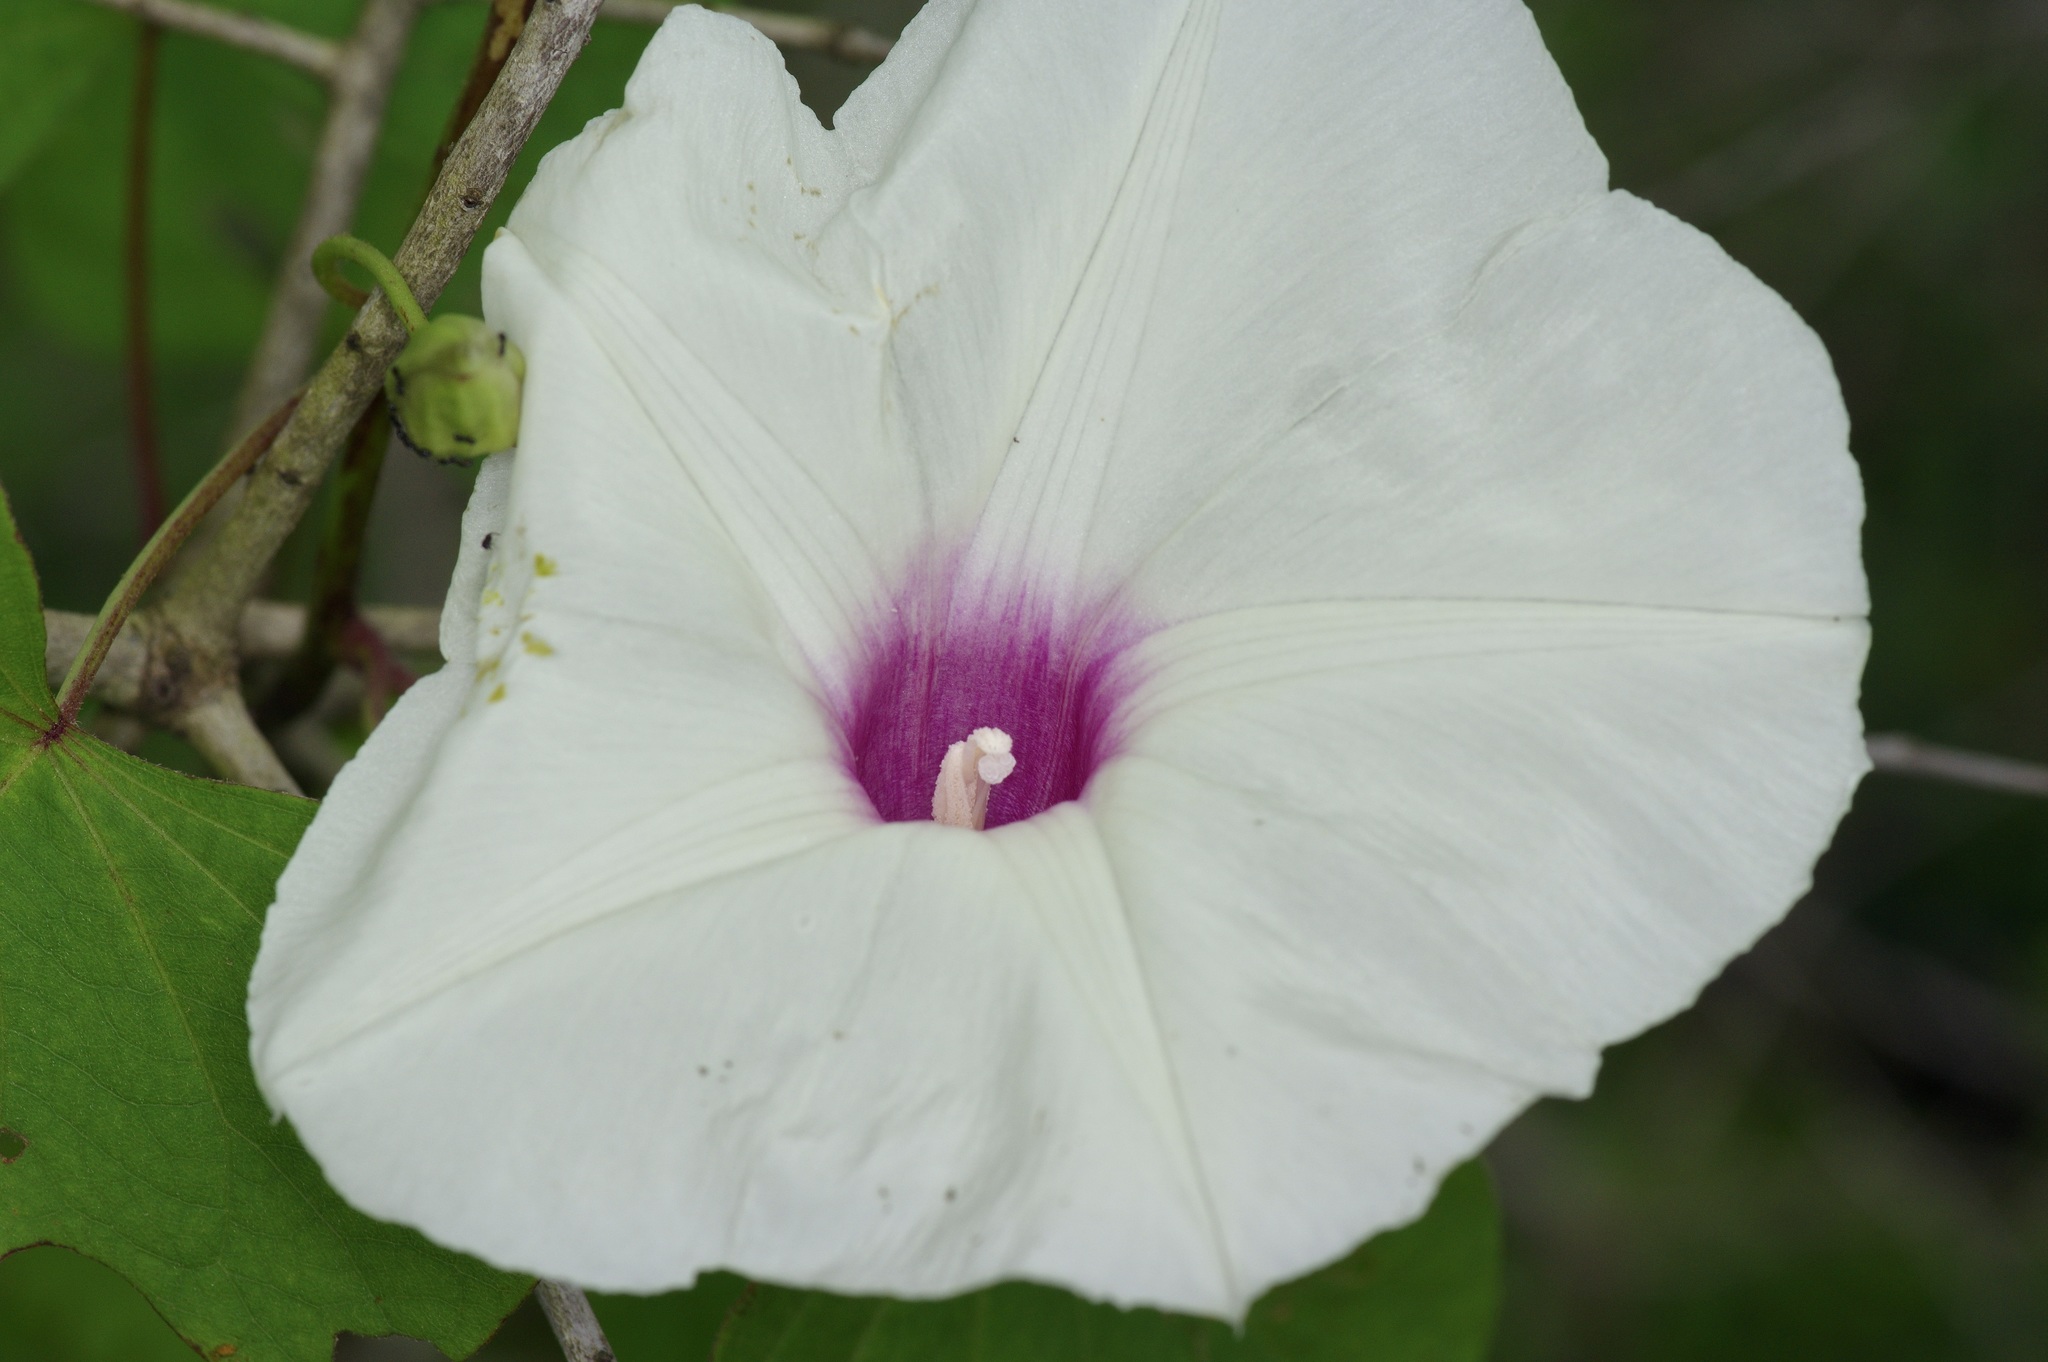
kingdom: Plantae
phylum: Tracheophyta
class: Magnoliopsida
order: Solanales
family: Convolvulaceae
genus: Ipomoea
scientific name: Ipomoea pandurata
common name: Man-of-the-earth
